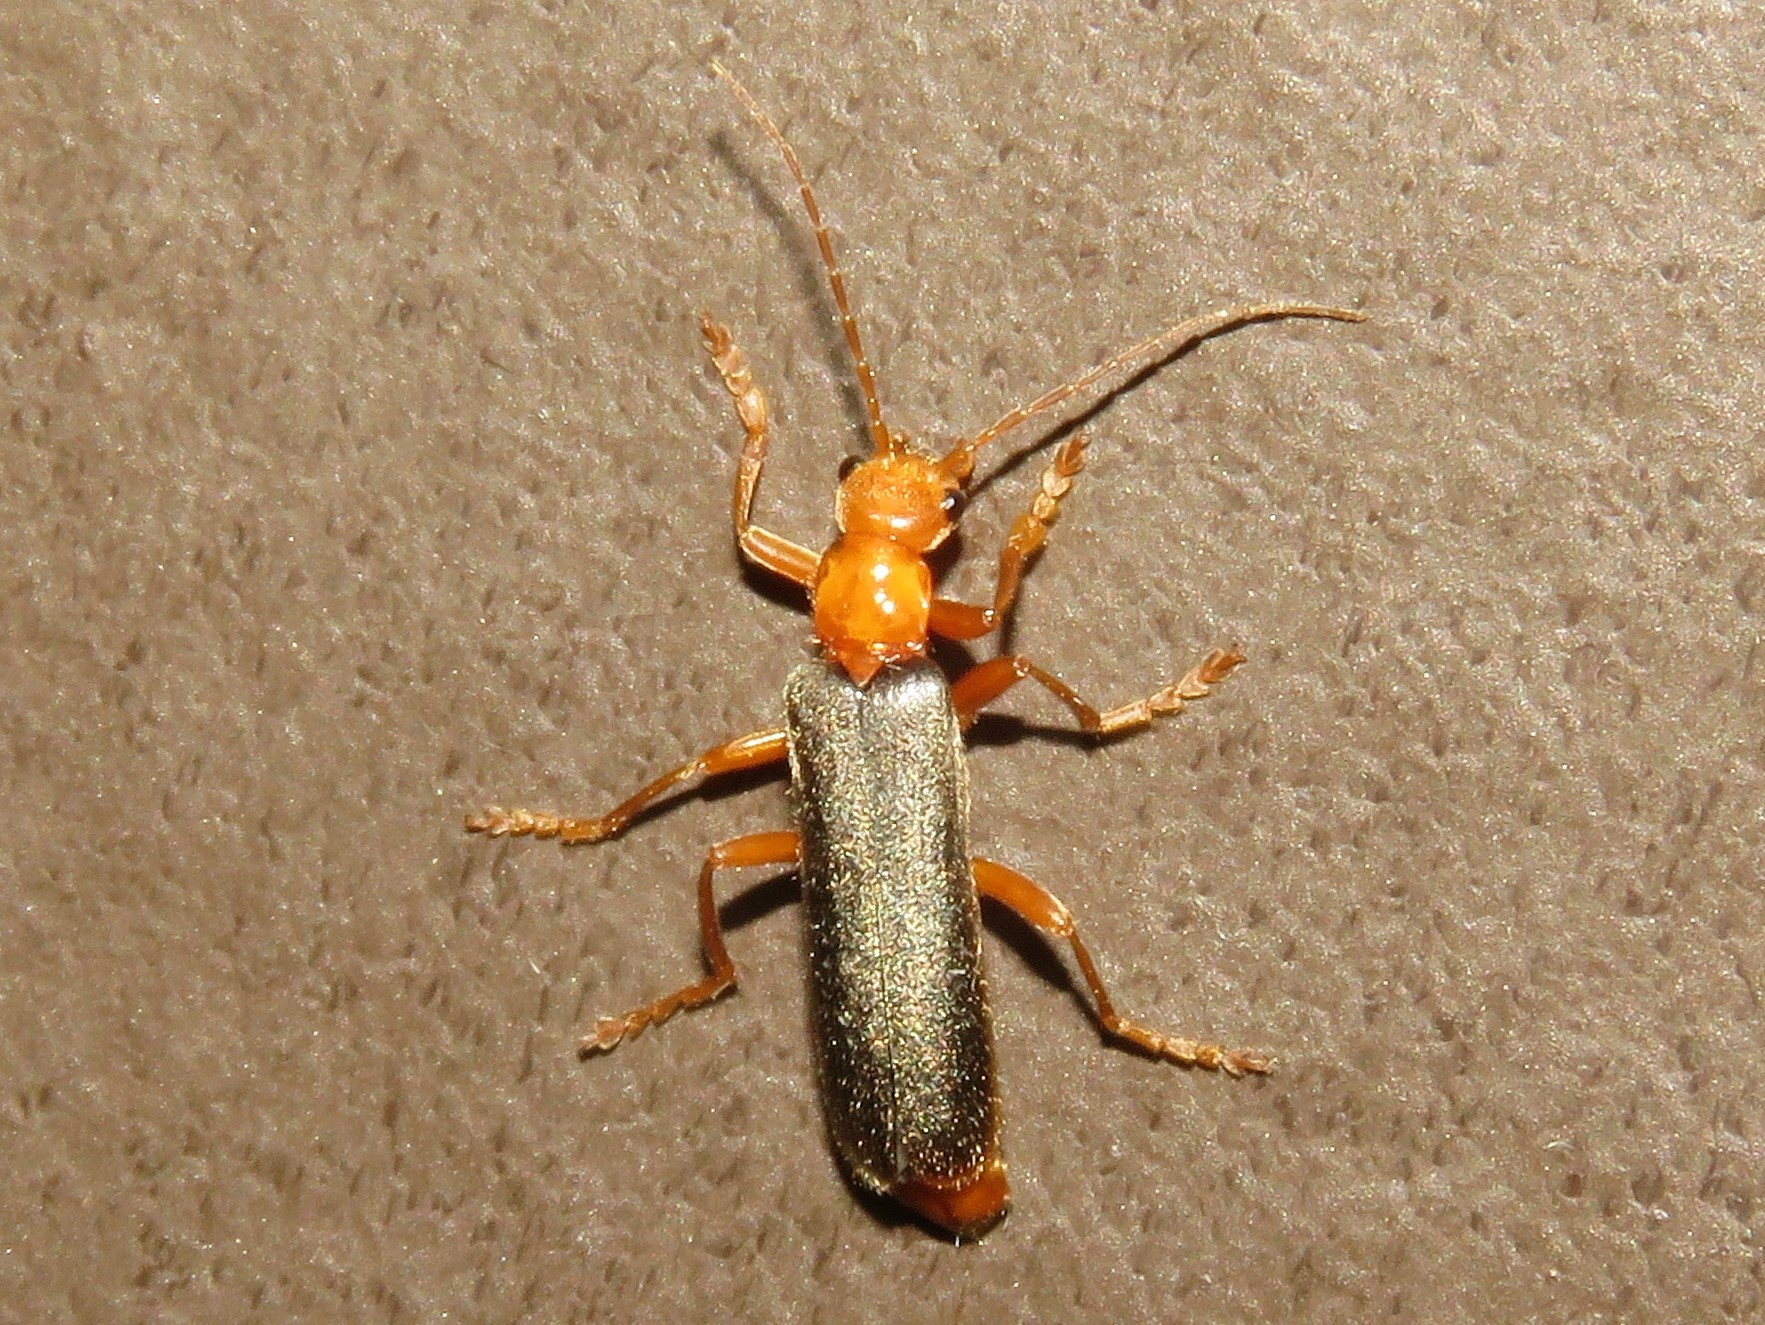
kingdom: Animalia
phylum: Arthropoda
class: Insecta
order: Coleoptera
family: Cantharidae
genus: Pacificanthia
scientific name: Pacificanthia rotundicollis
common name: Brown leatherwing beetle
